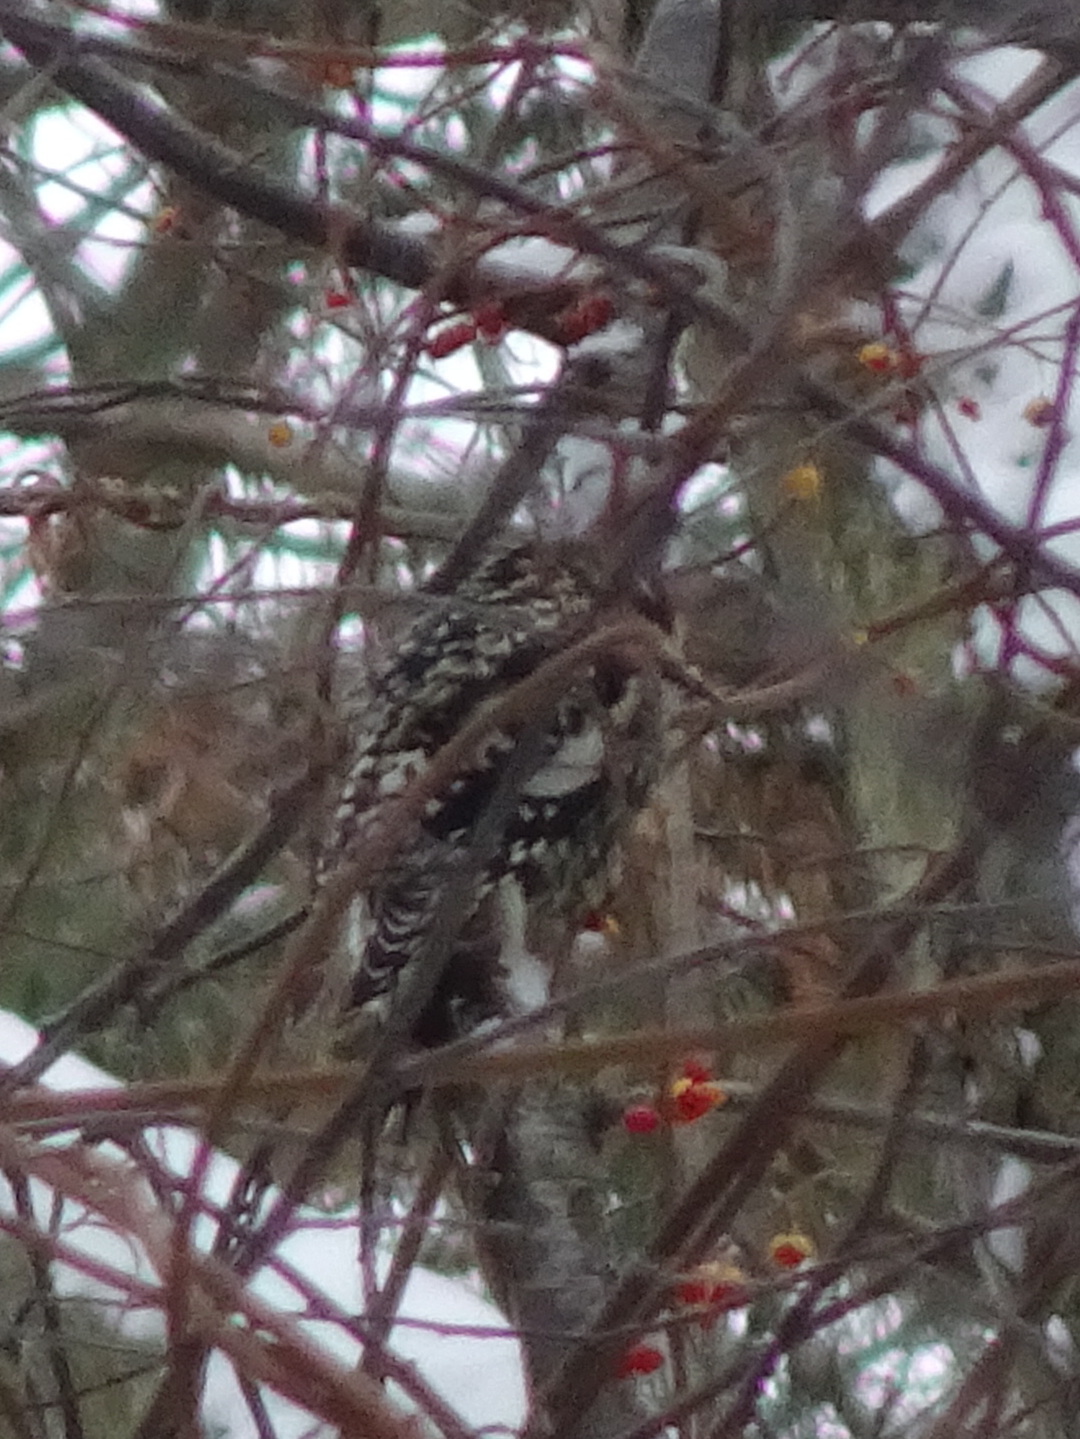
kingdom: Animalia
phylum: Chordata
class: Aves
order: Piciformes
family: Picidae
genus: Sphyrapicus
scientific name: Sphyrapicus varius
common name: Yellow-bellied sapsucker
